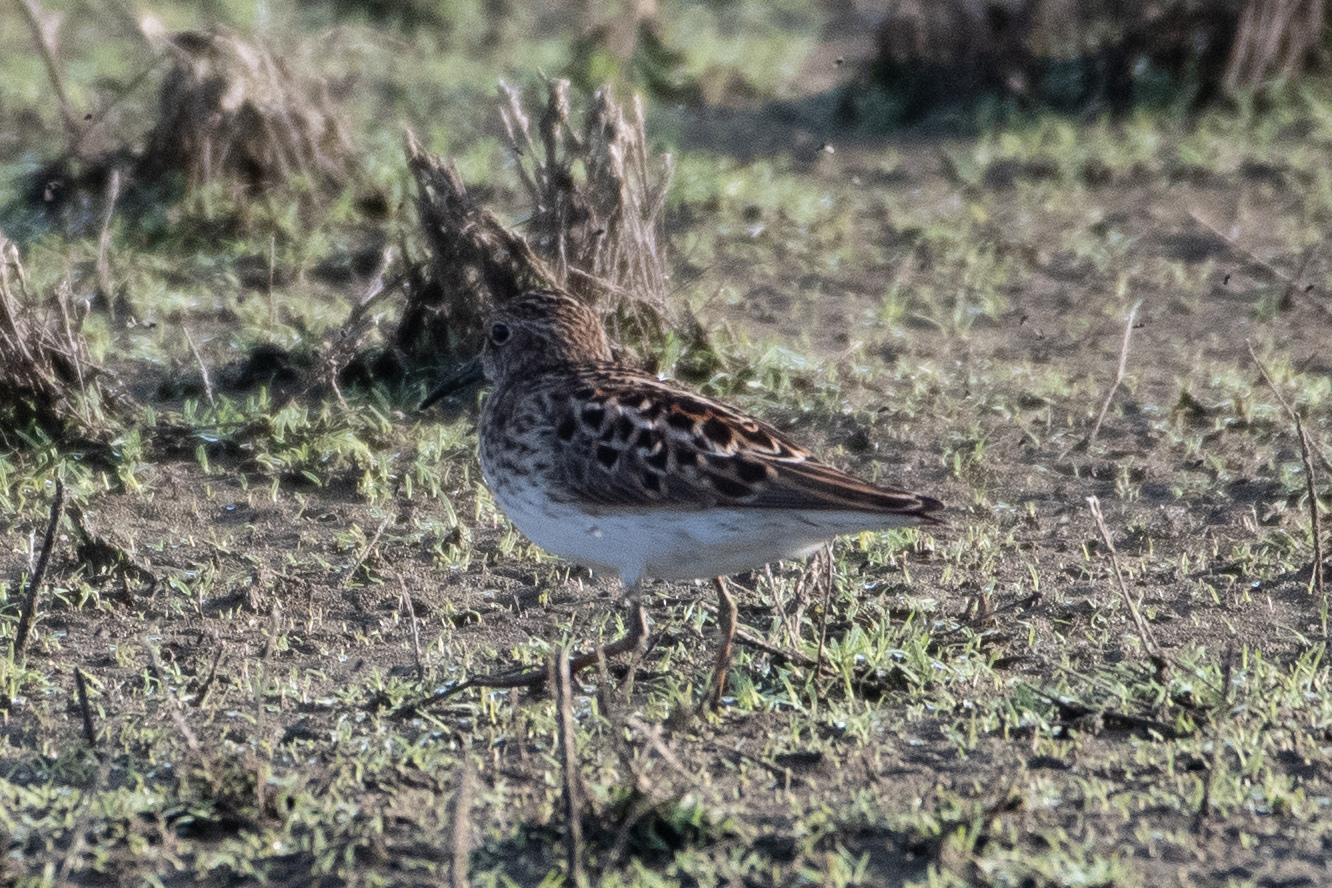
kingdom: Animalia
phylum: Chordata
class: Aves
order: Charadriiformes
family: Scolopacidae
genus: Calidris
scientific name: Calidris minutilla
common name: Least sandpiper
